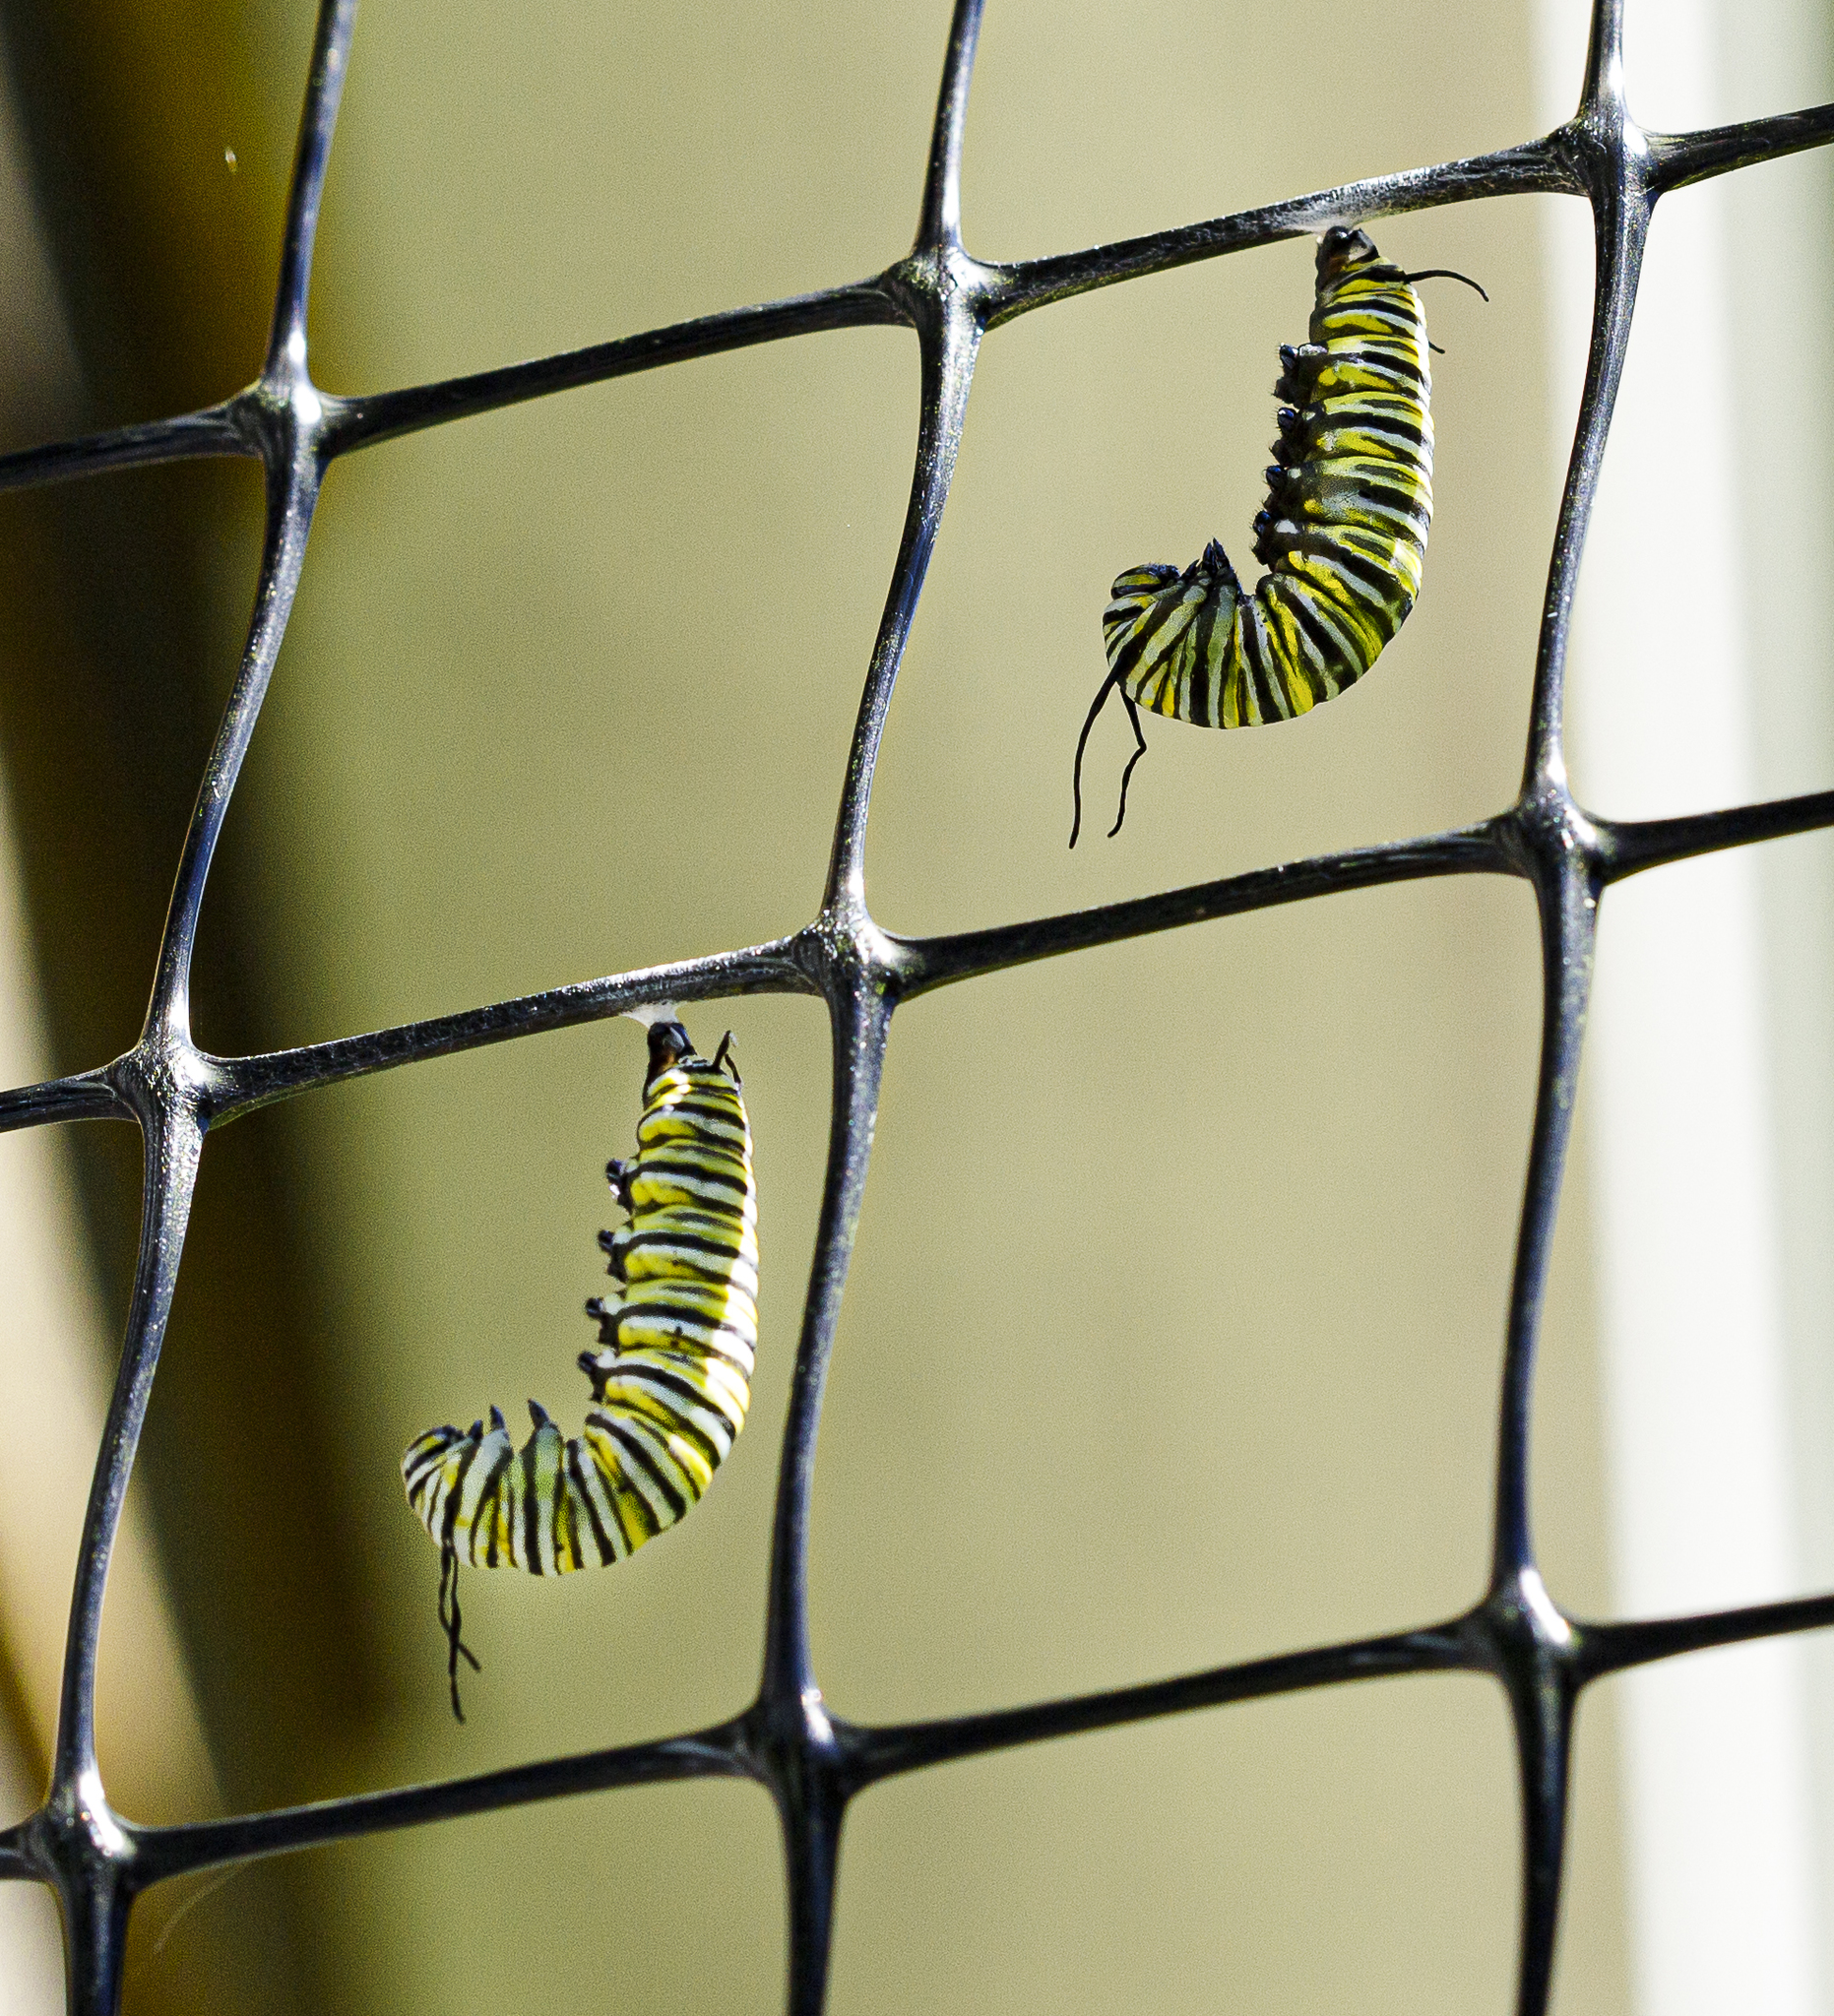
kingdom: Animalia
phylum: Arthropoda
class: Insecta
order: Lepidoptera
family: Nymphalidae
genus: Danaus
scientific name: Danaus plexippus
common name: Monarch
